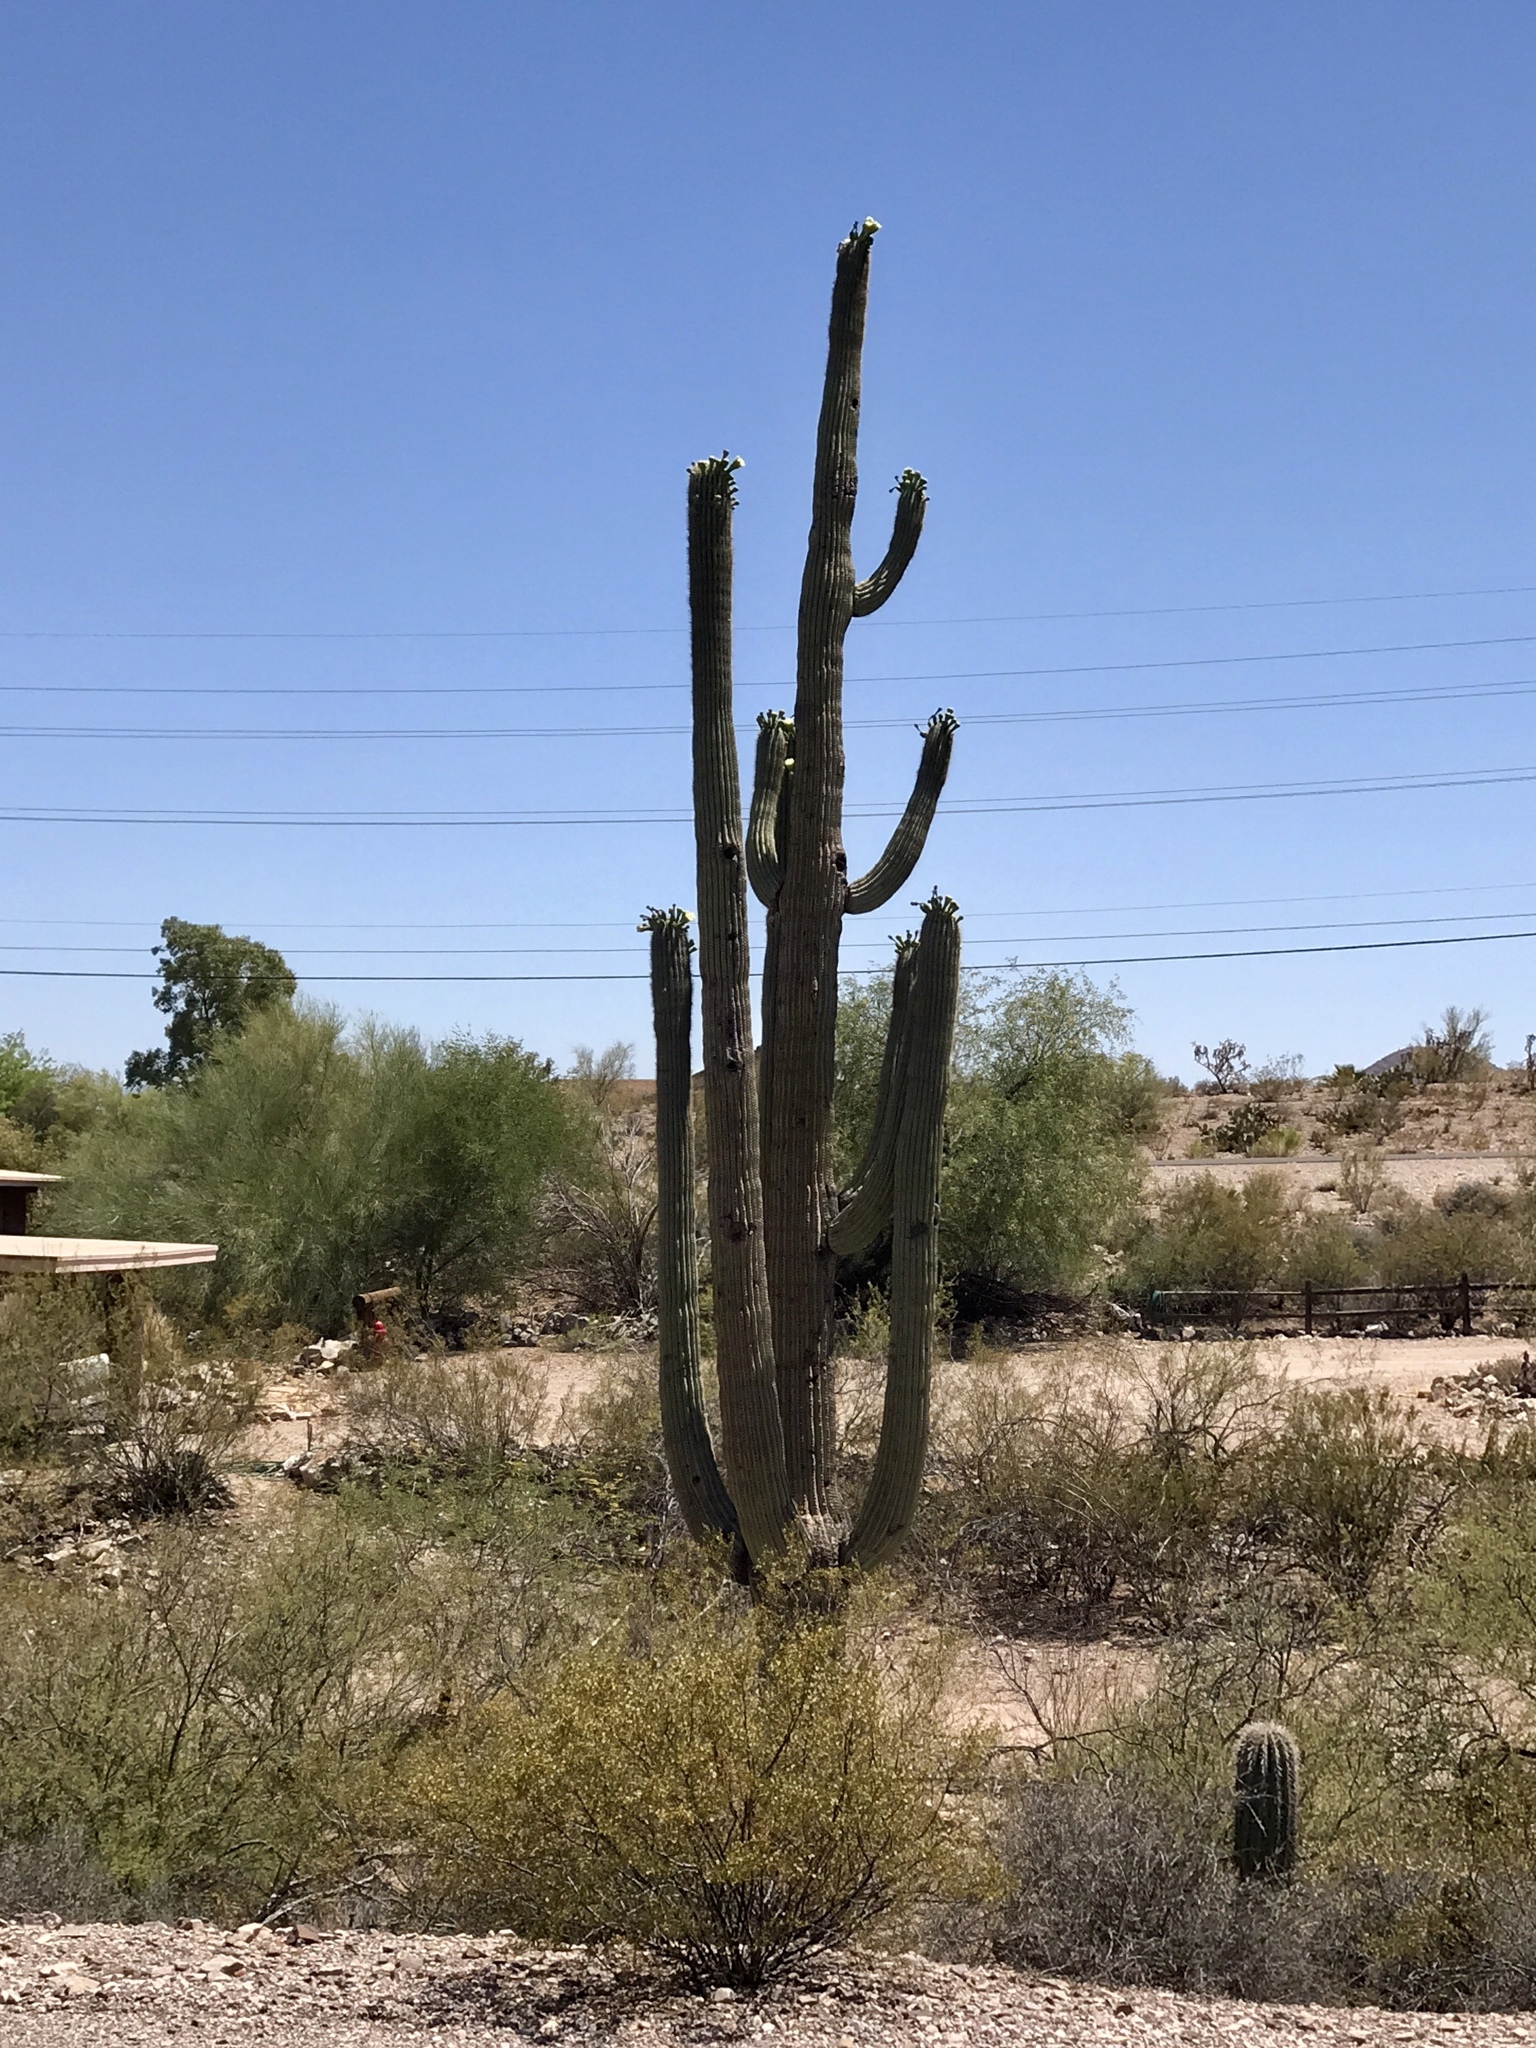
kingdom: Plantae
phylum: Tracheophyta
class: Magnoliopsida
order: Caryophyllales
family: Cactaceae
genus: Carnegiea
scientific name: Carnegiea gigantea
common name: Saguaro
